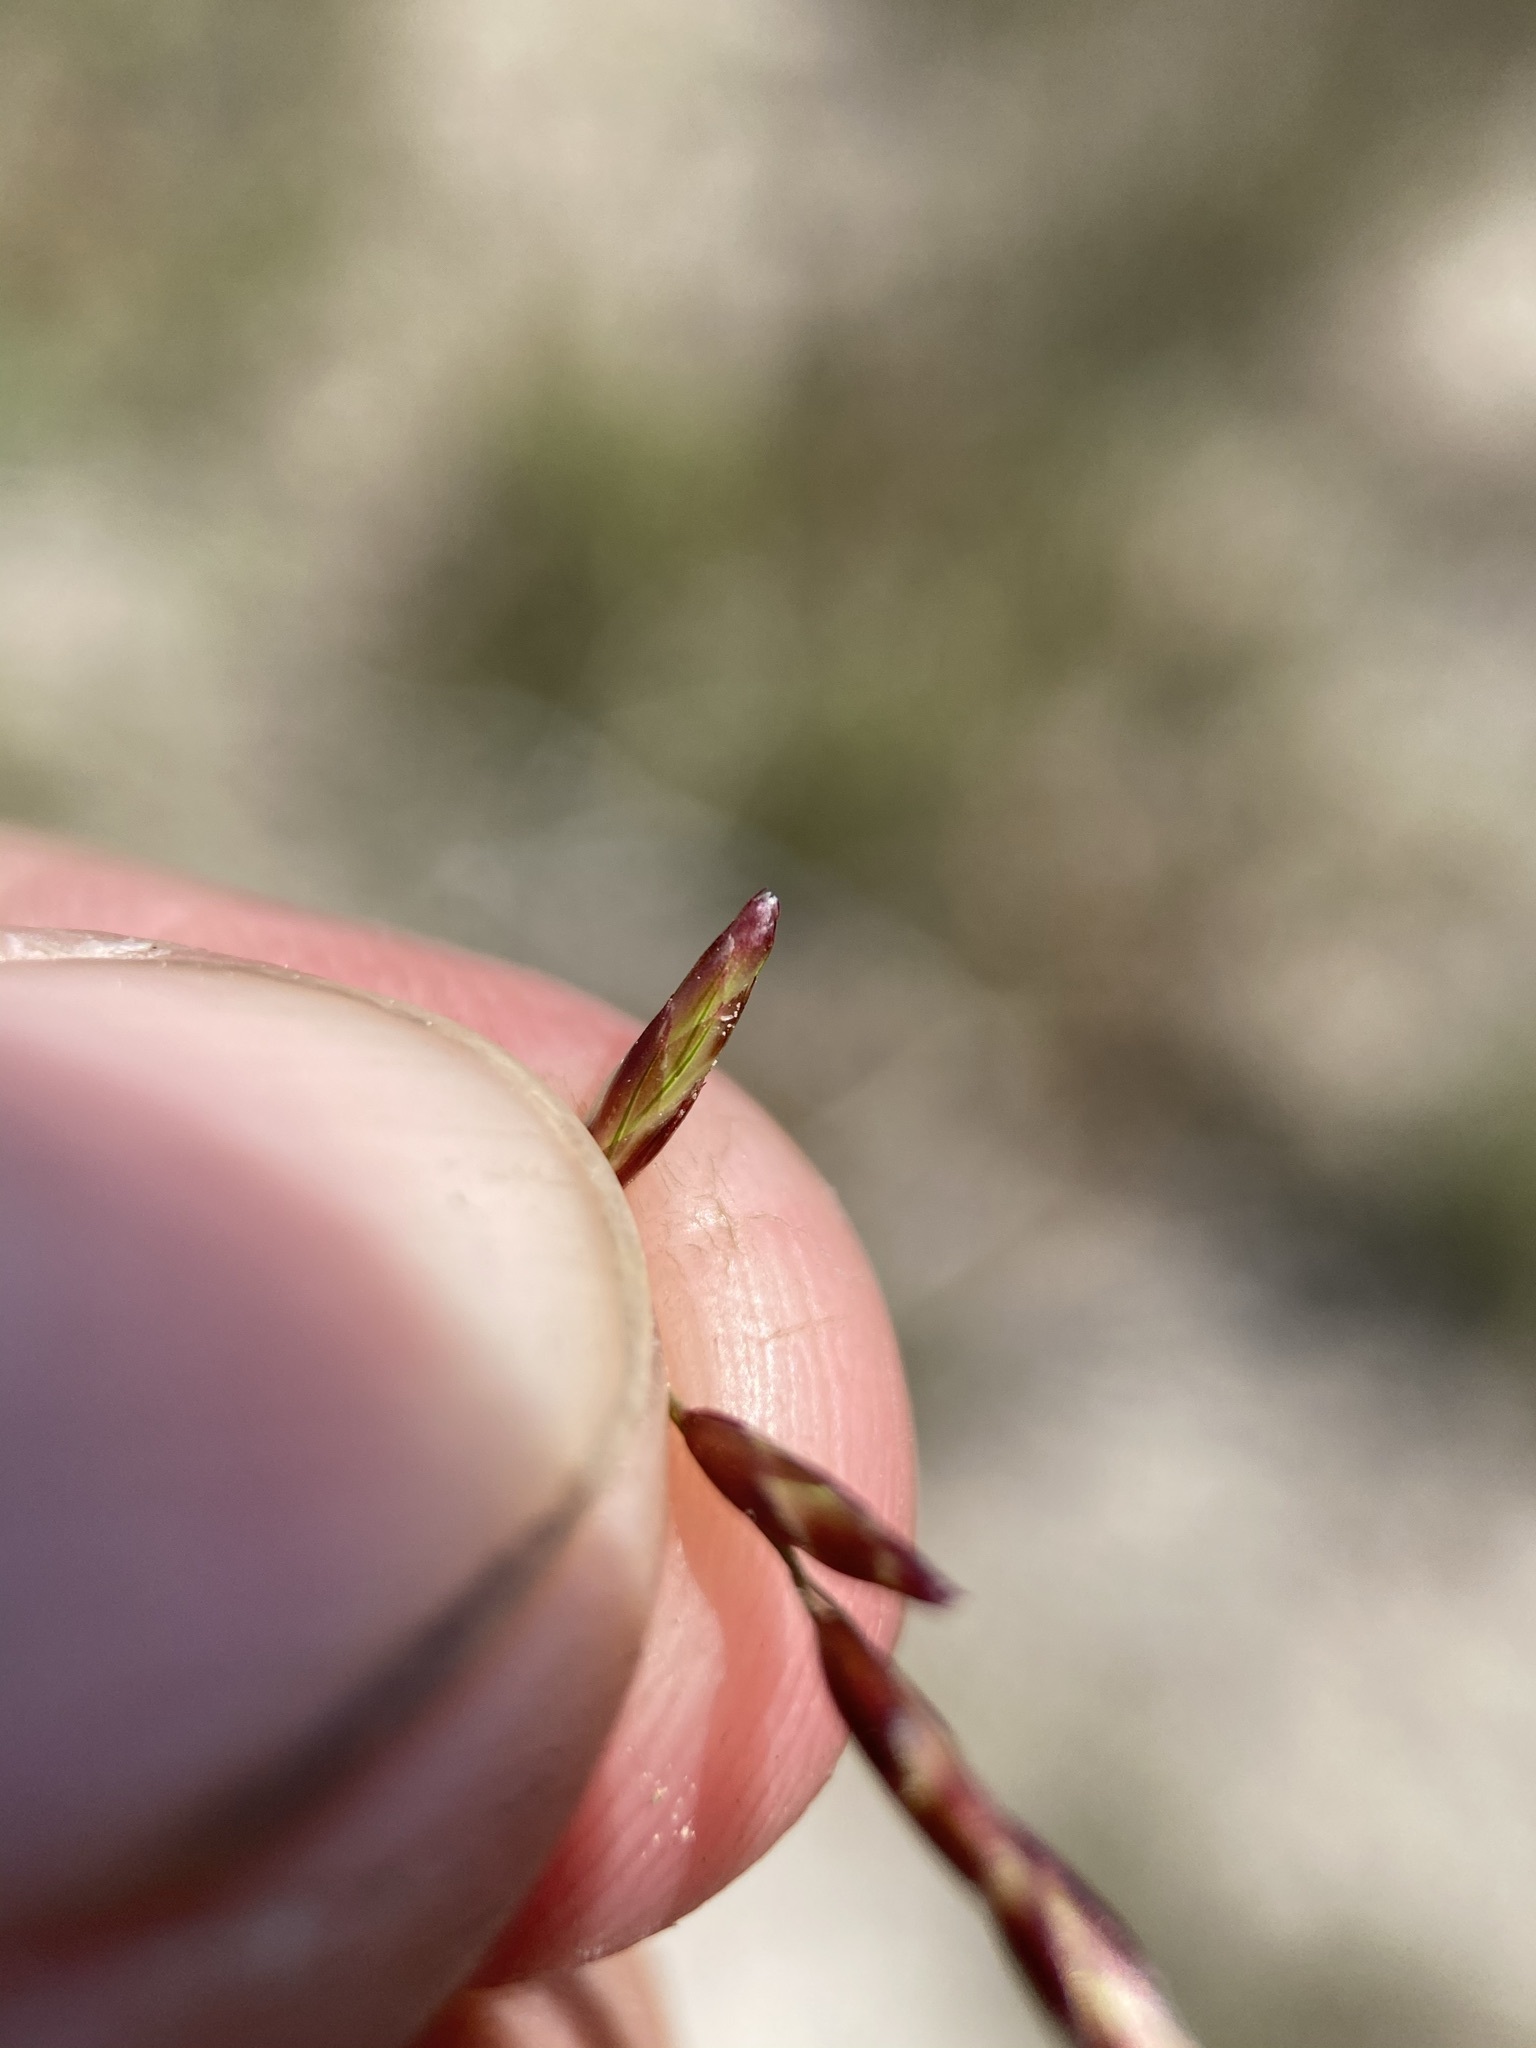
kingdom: Plantae
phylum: Tracheophyta
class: Liliopsida
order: Poales
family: Poaceae
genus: Tridens
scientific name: Tridens texanus
